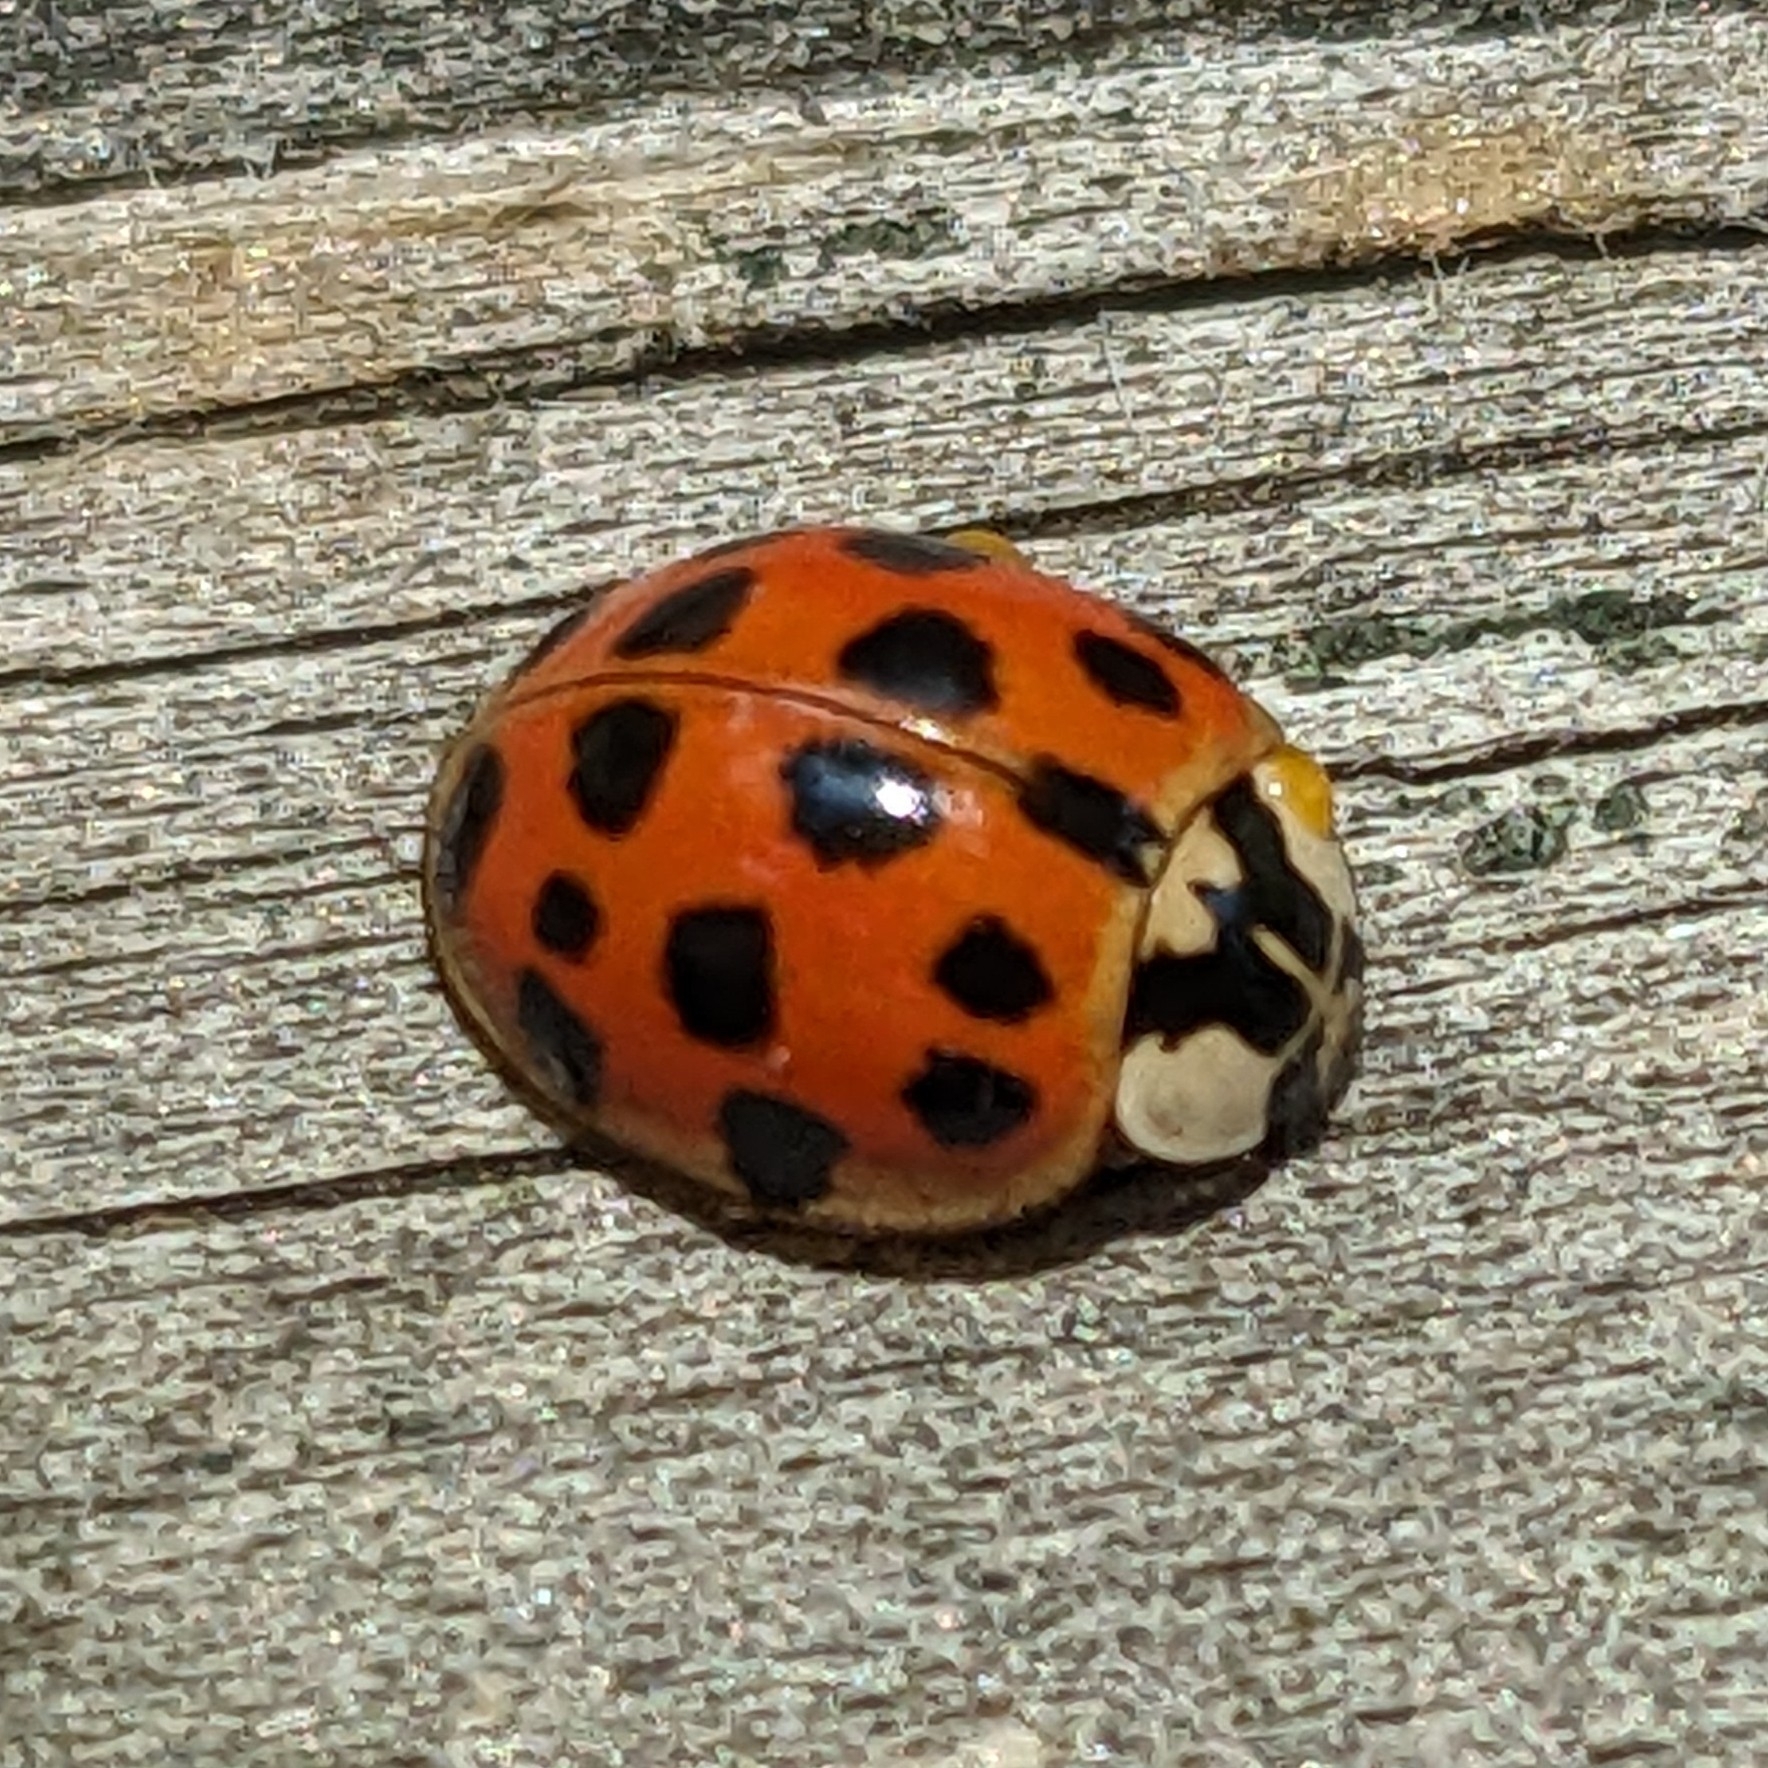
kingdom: Animalia
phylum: Arthropoda
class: Insecta
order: Coleoptera
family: Coccinellidae
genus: Harmonia
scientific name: Harmonia axyridis
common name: Harlequin ladybird
